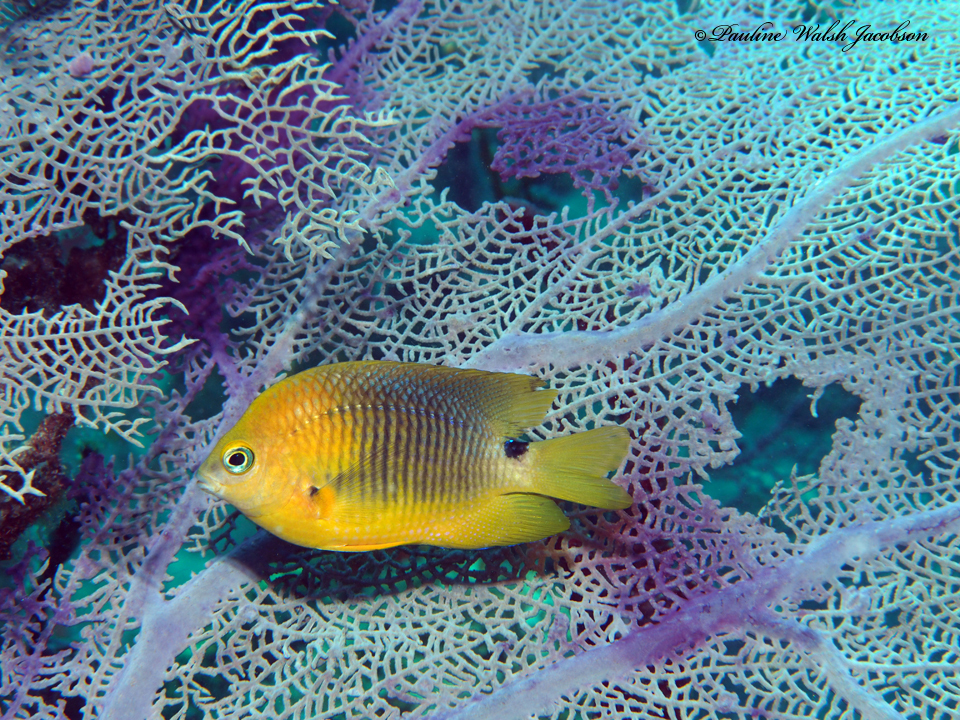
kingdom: Animalia
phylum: Chordata
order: Perciformes
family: Pomacentridae
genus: Stegastes
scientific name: Stegastes planifrons
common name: Threespot damselfish
